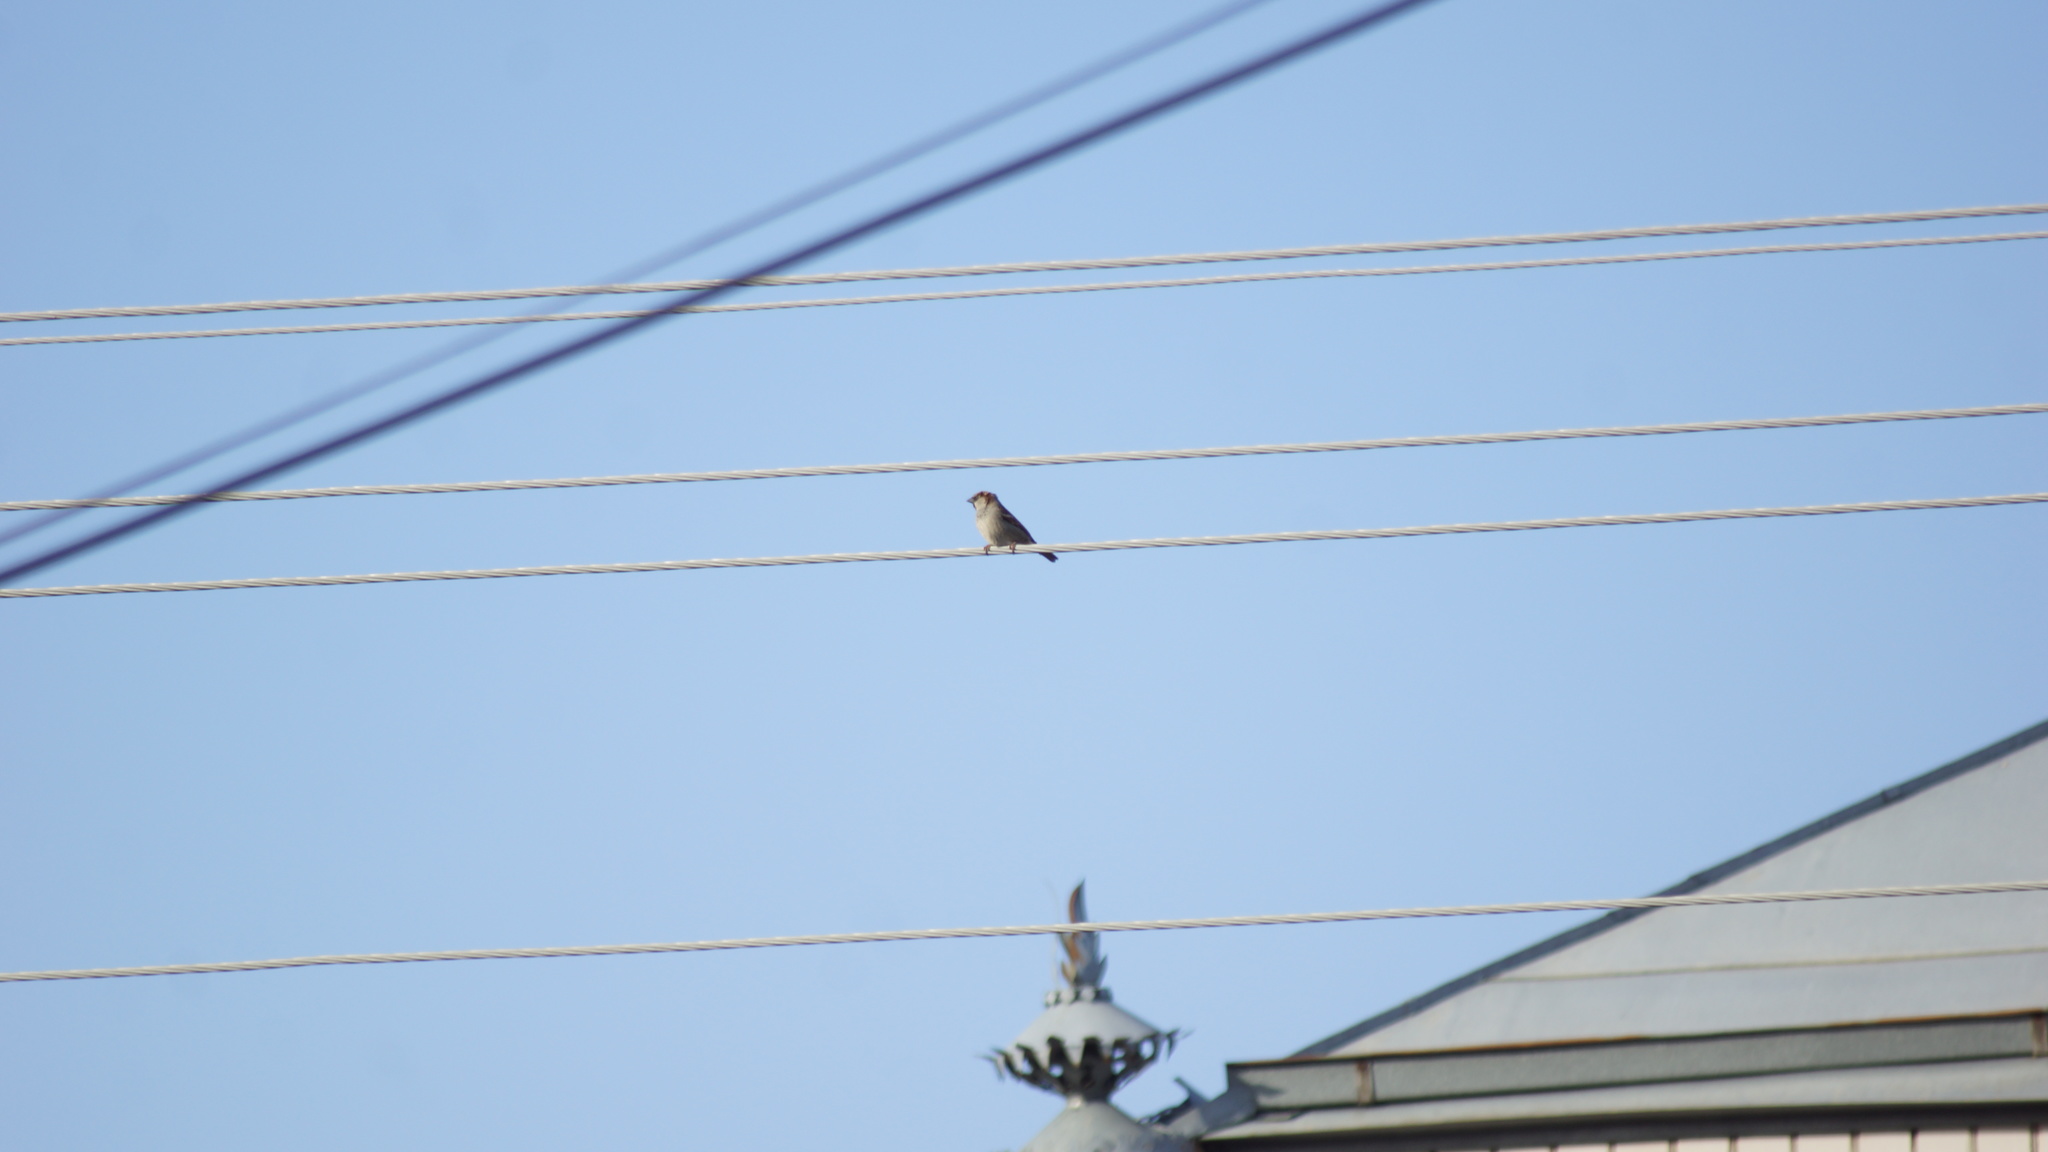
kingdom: Animalia
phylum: Chordata
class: Aves
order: Passeriformes
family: Passeridae
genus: Passer
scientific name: Passer domesticus
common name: House sparrow
